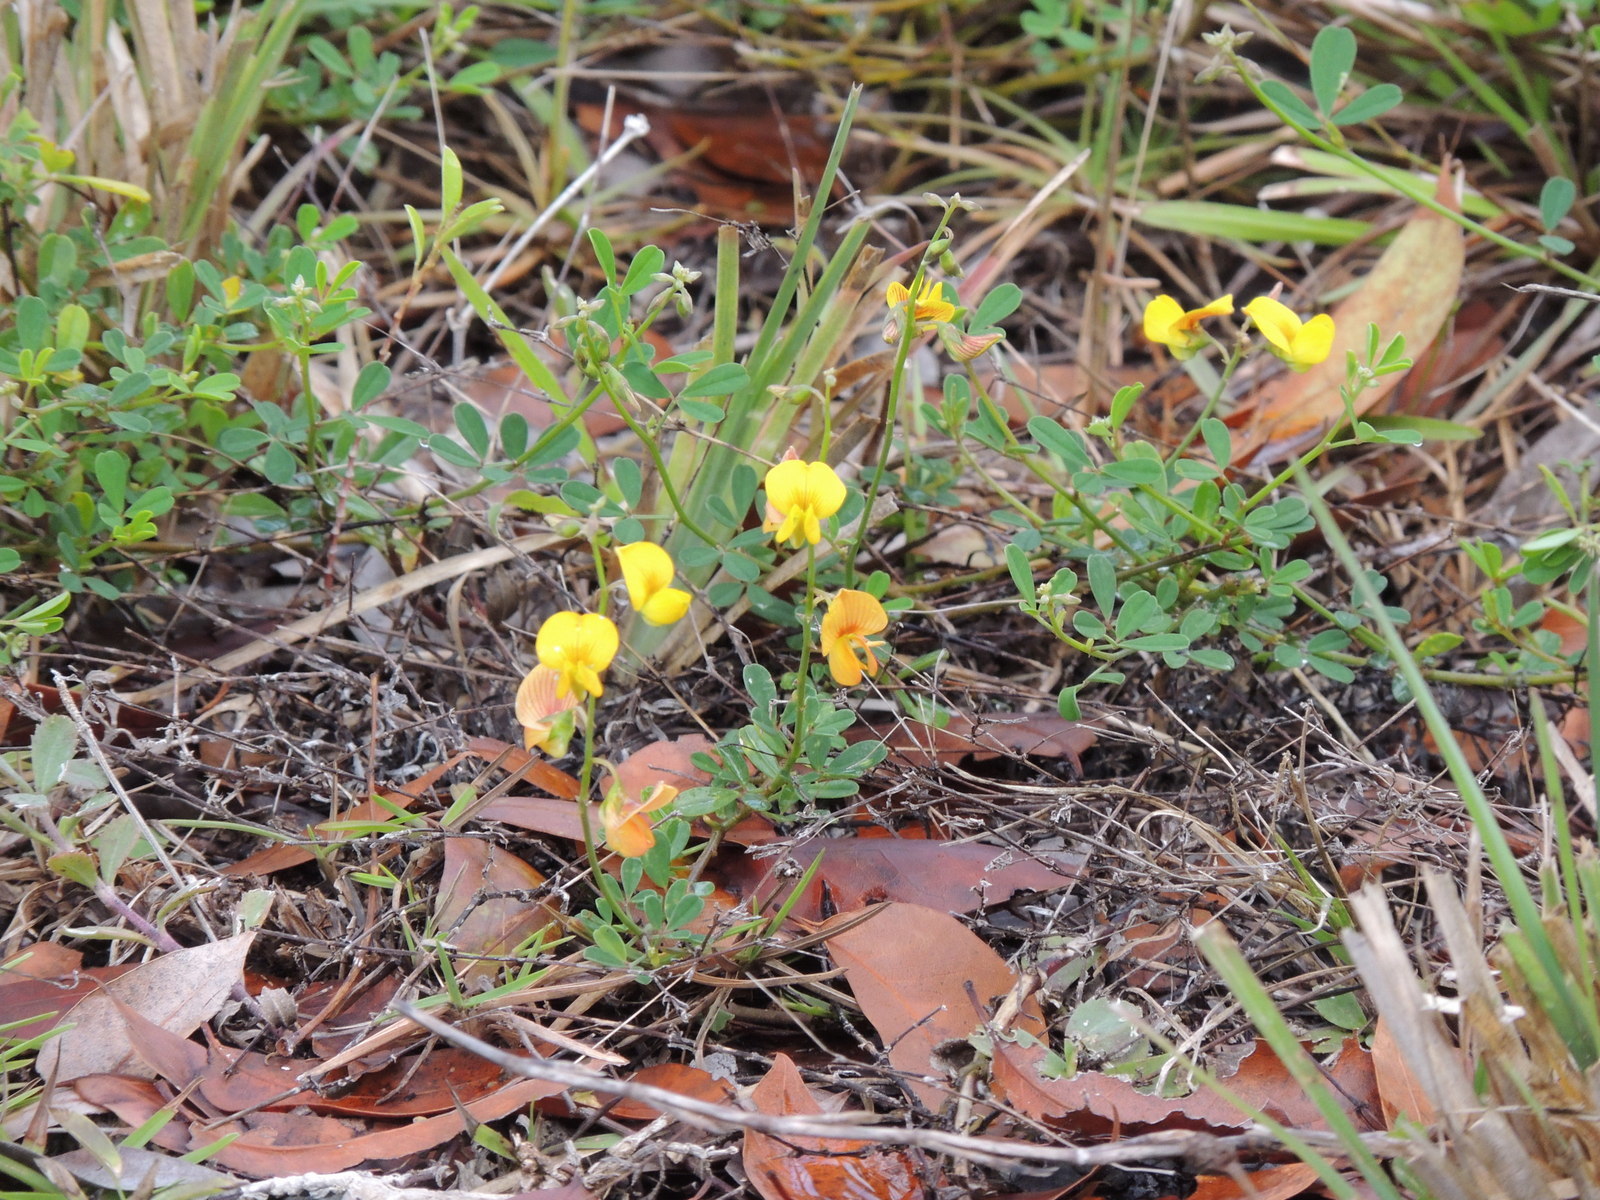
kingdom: Plantae
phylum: Tracheophyta
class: Magnoliopsida
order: Fabales
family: Fabaceae
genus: Crotalaria
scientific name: Crotalaria pumila
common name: Low rattlebox
